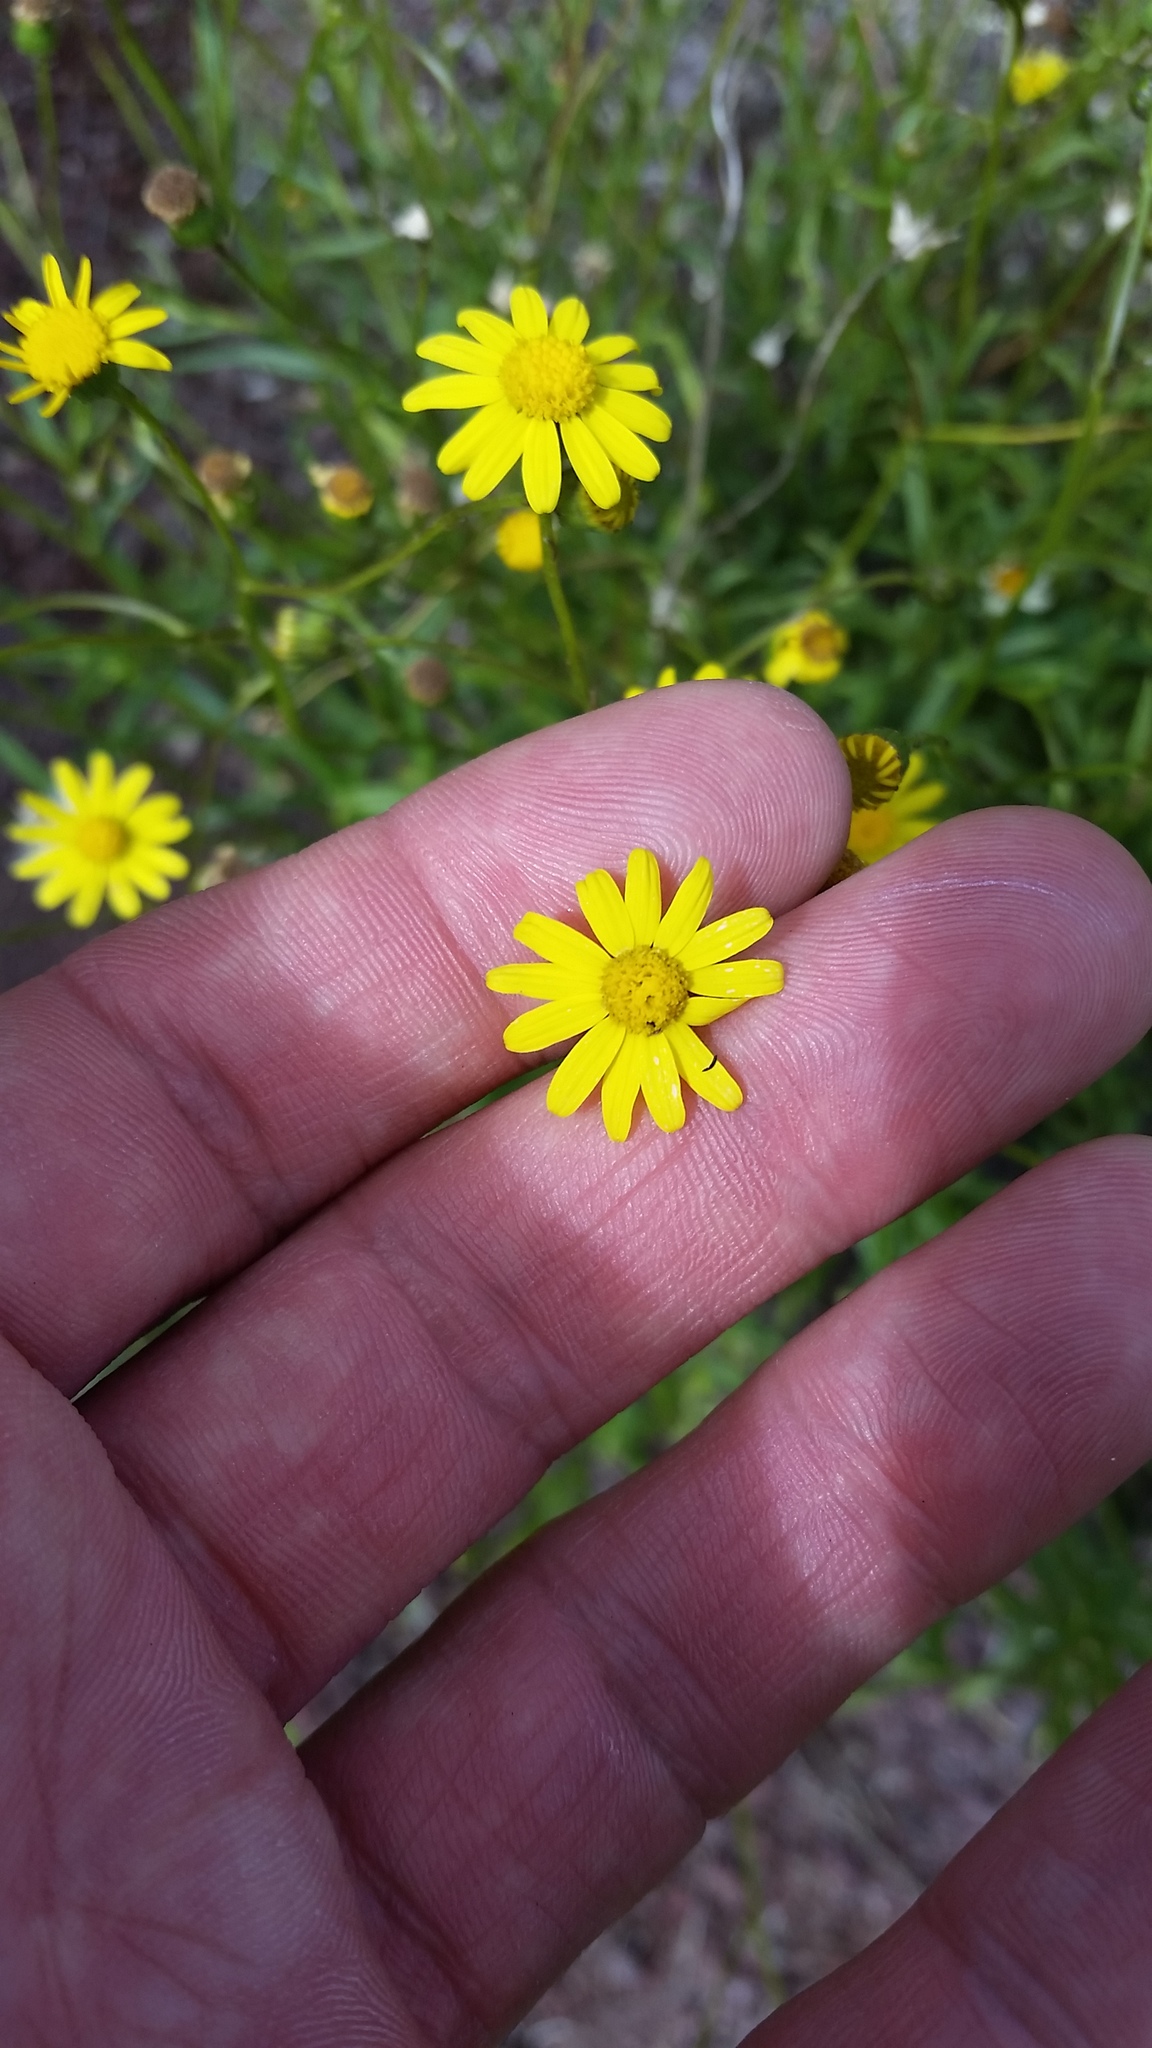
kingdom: Plantae
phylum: Tracheophyta
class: Magnoliopsida
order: Asterales
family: Asteraceae
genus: Senecio
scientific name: Senecio madagascariensis
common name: Madagascar ragwort
